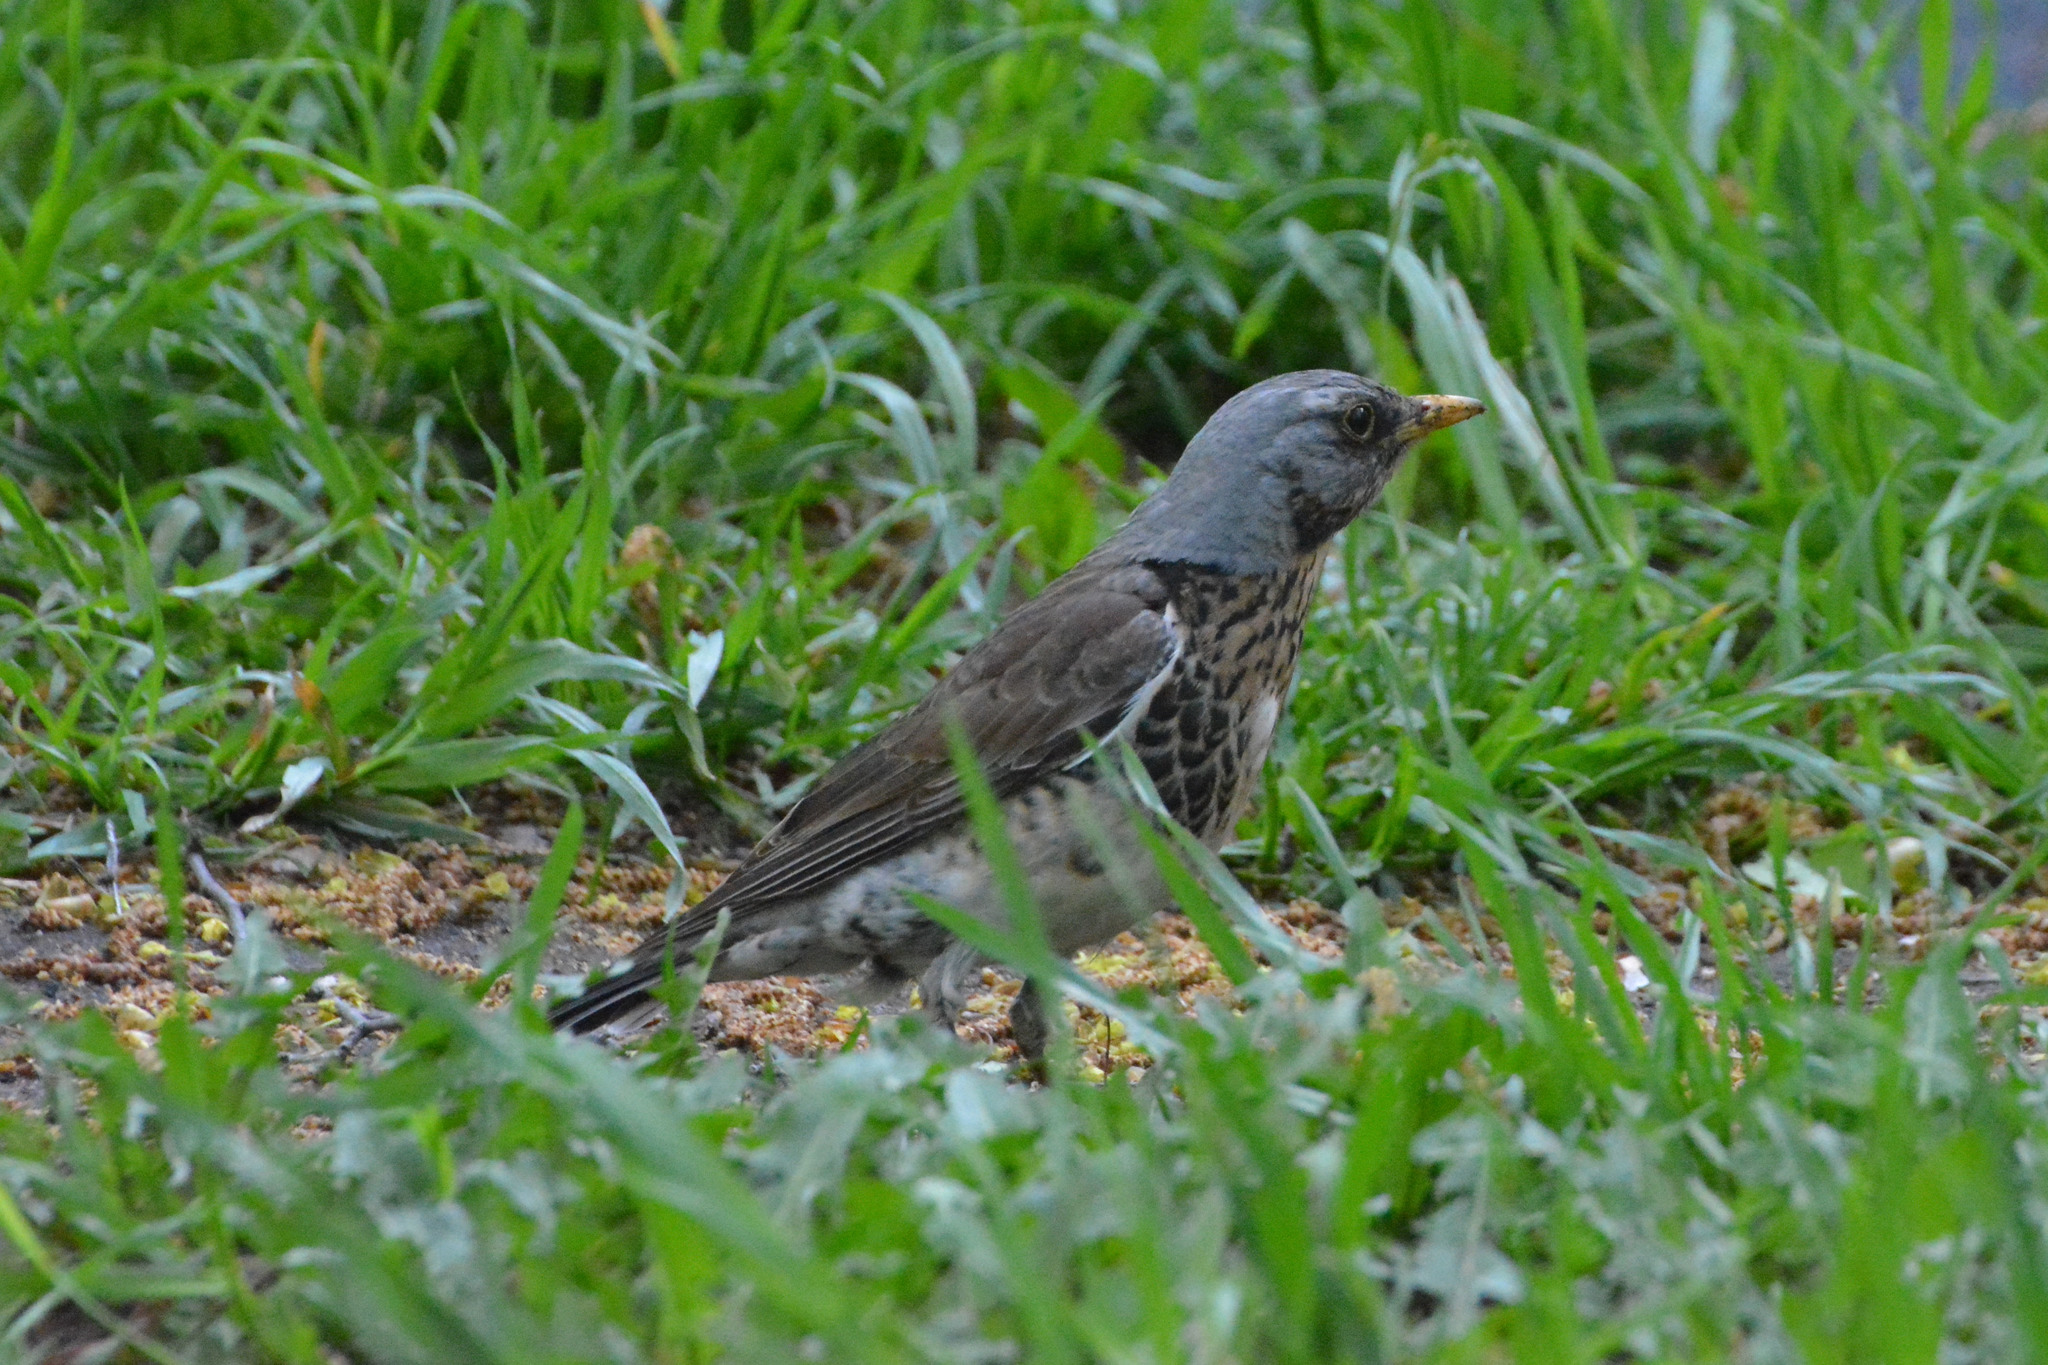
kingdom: Animalia
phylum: Chordata
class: Aves
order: Passeriformes
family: Turdidae
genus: Turdus
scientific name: Turdus pilaris
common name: Fieldfare
